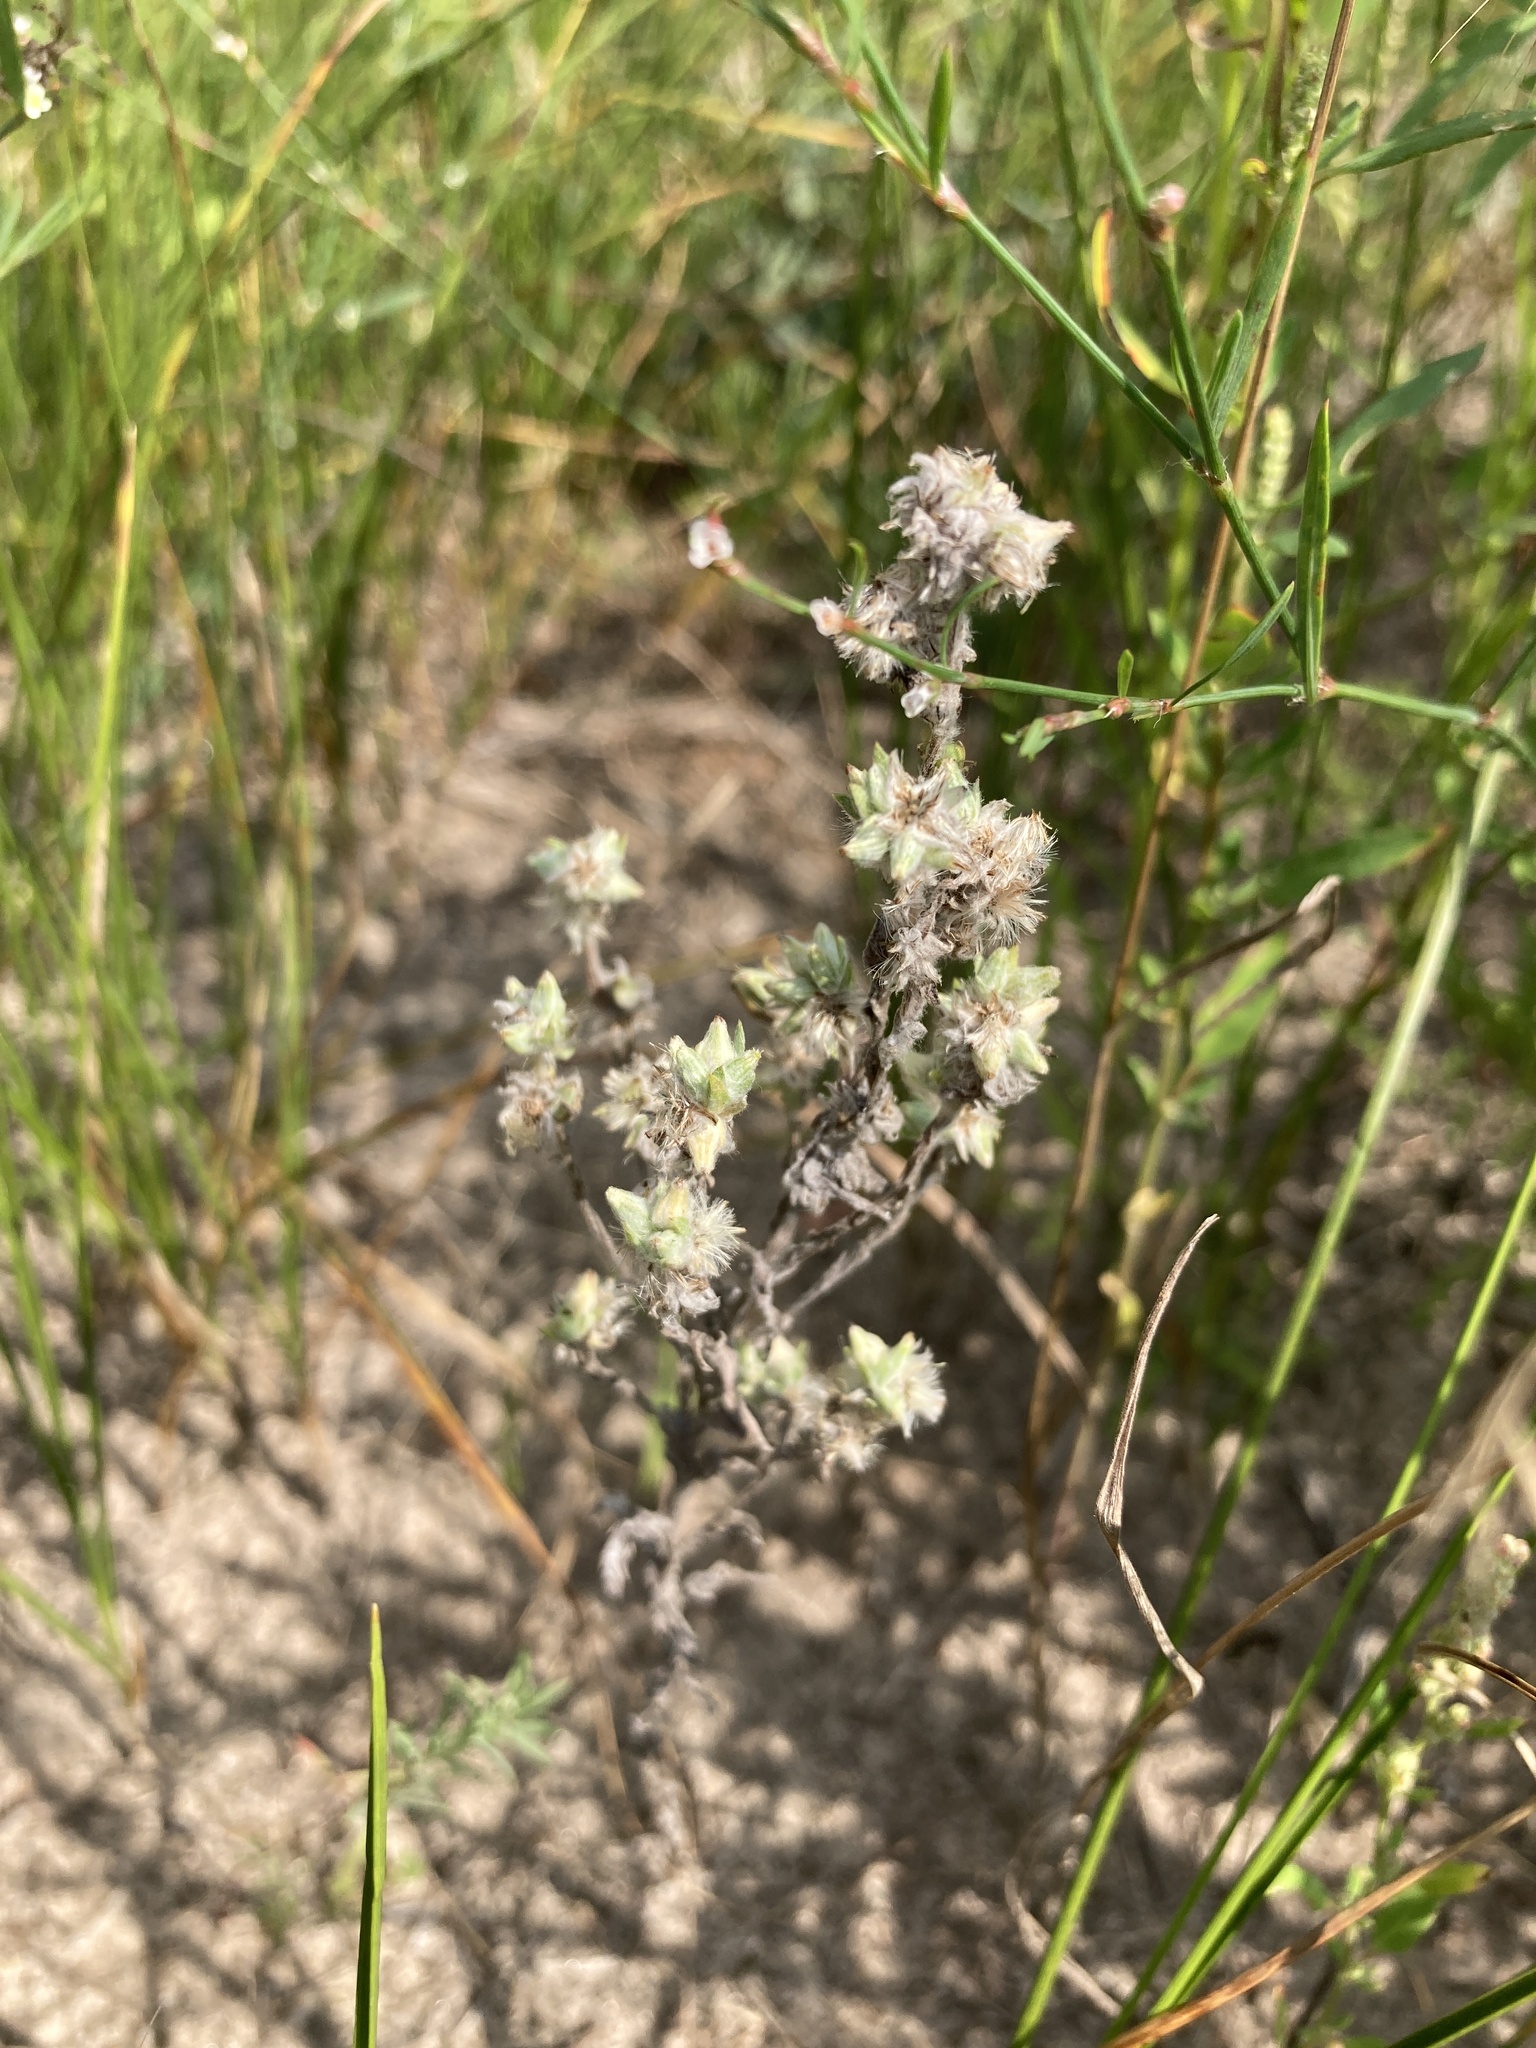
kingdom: Plantae
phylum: Tracheophyta
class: Magnoliopsida
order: Asterales
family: Asteraceae
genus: Filago
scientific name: Filago arvensis
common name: Field cudweed
